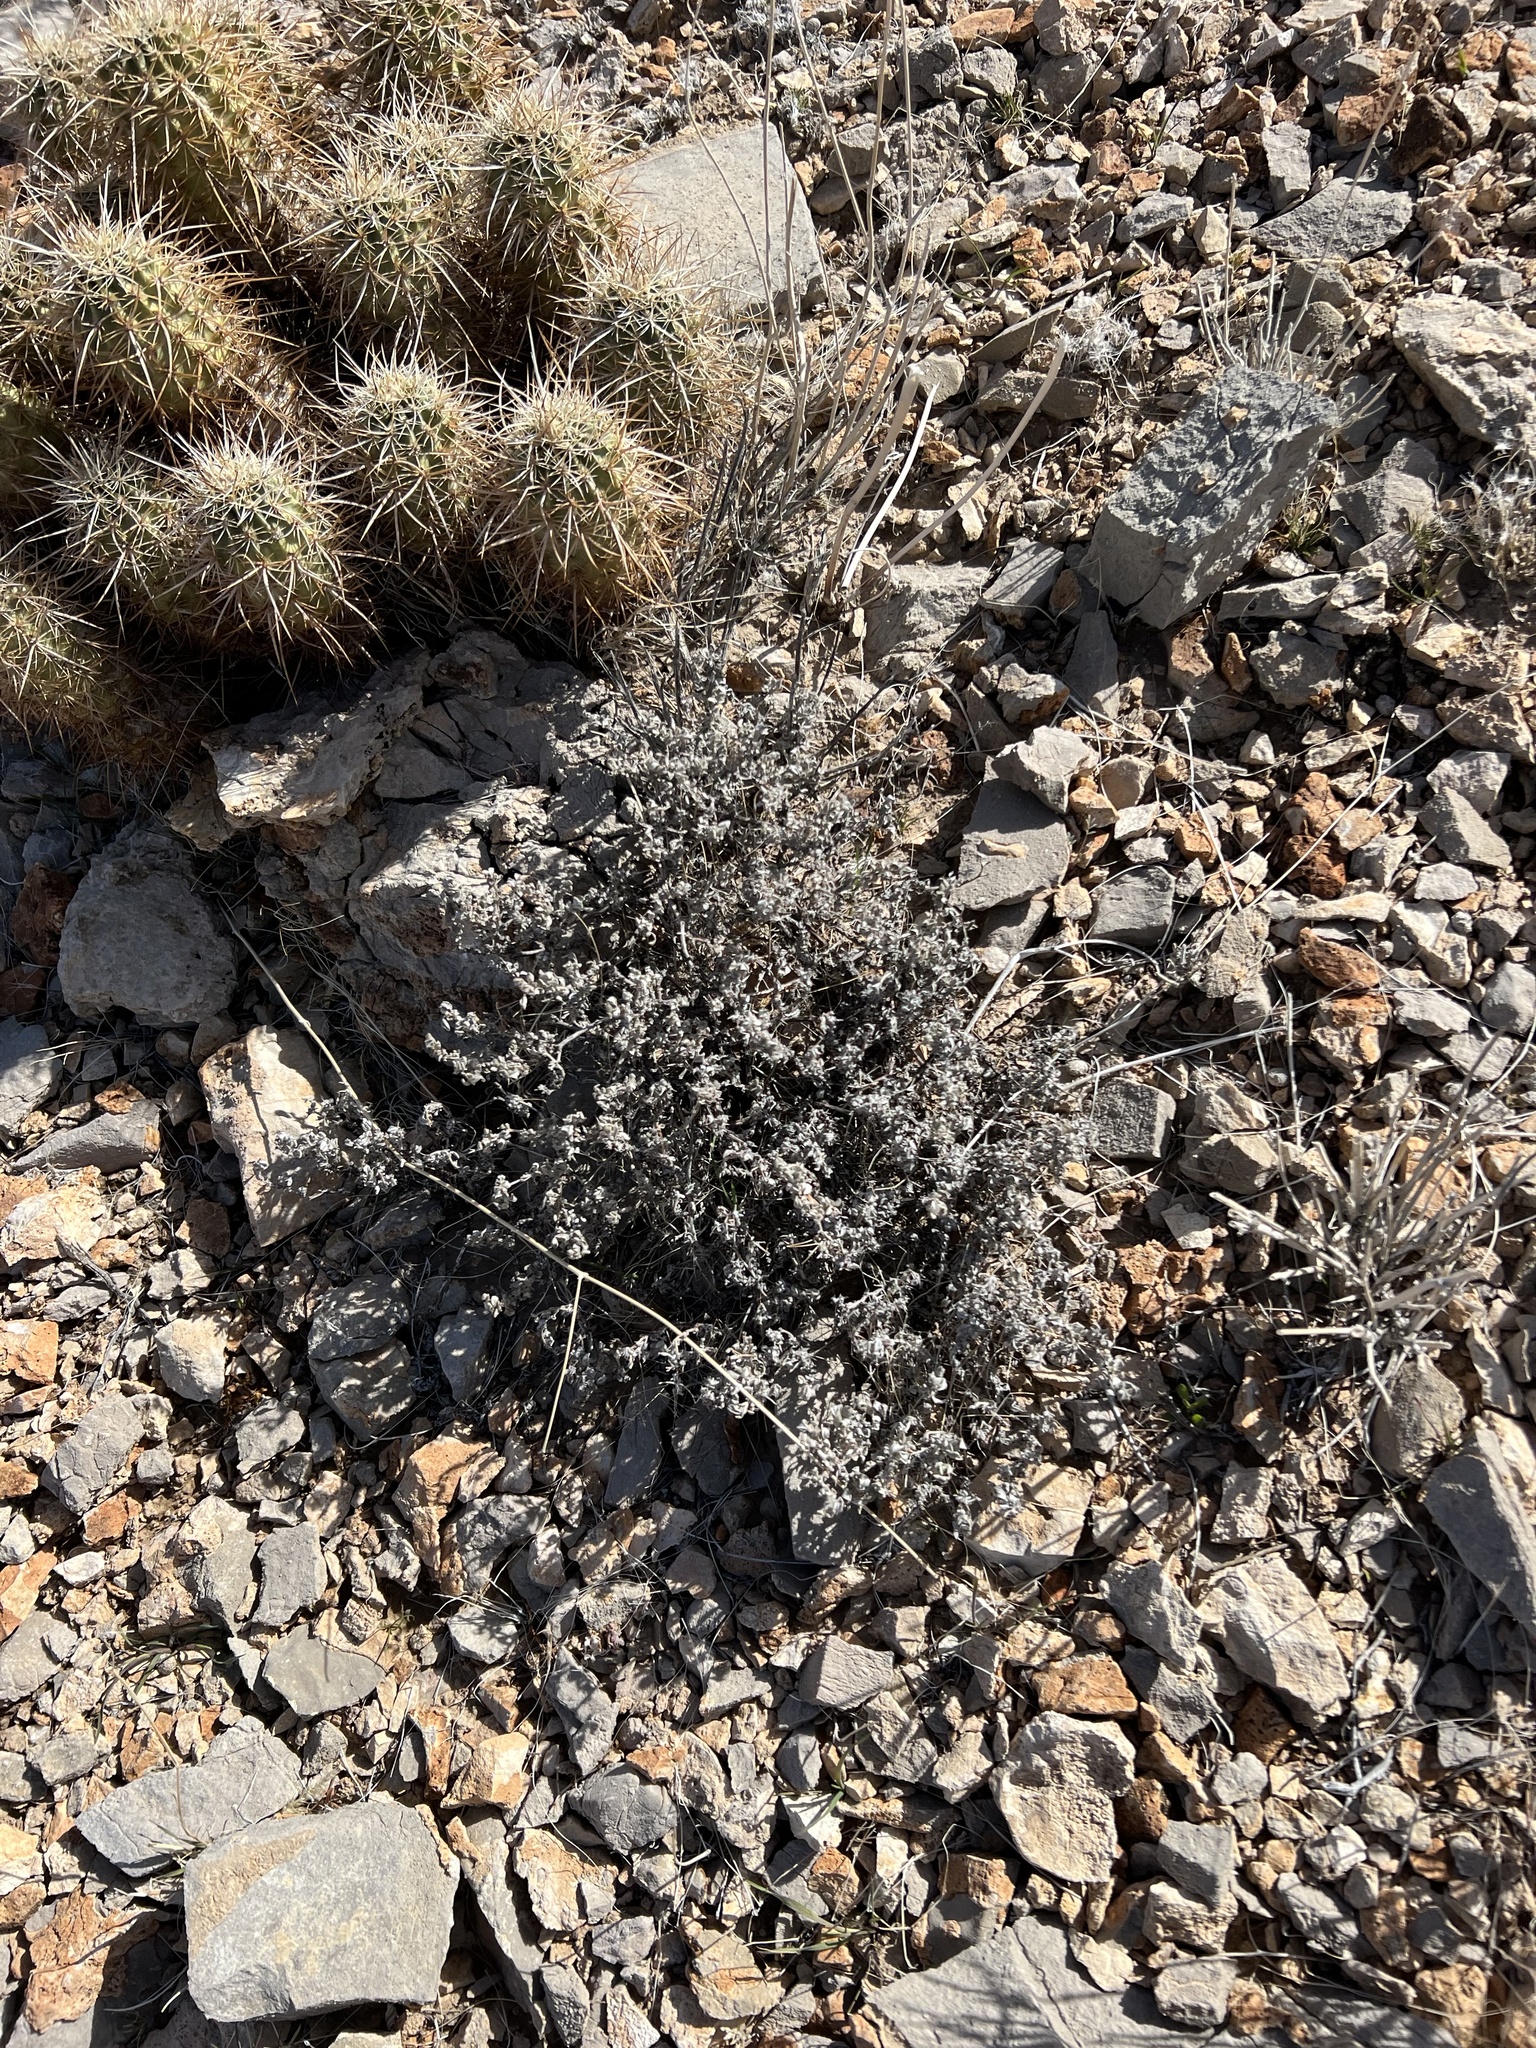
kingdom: Plantae
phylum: Tracheophyta
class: Magnoliopsida
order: Boraginales
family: Ehretiaceae
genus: Tiquilia
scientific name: Tiquilia canescens
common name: Hairy tiquilia
